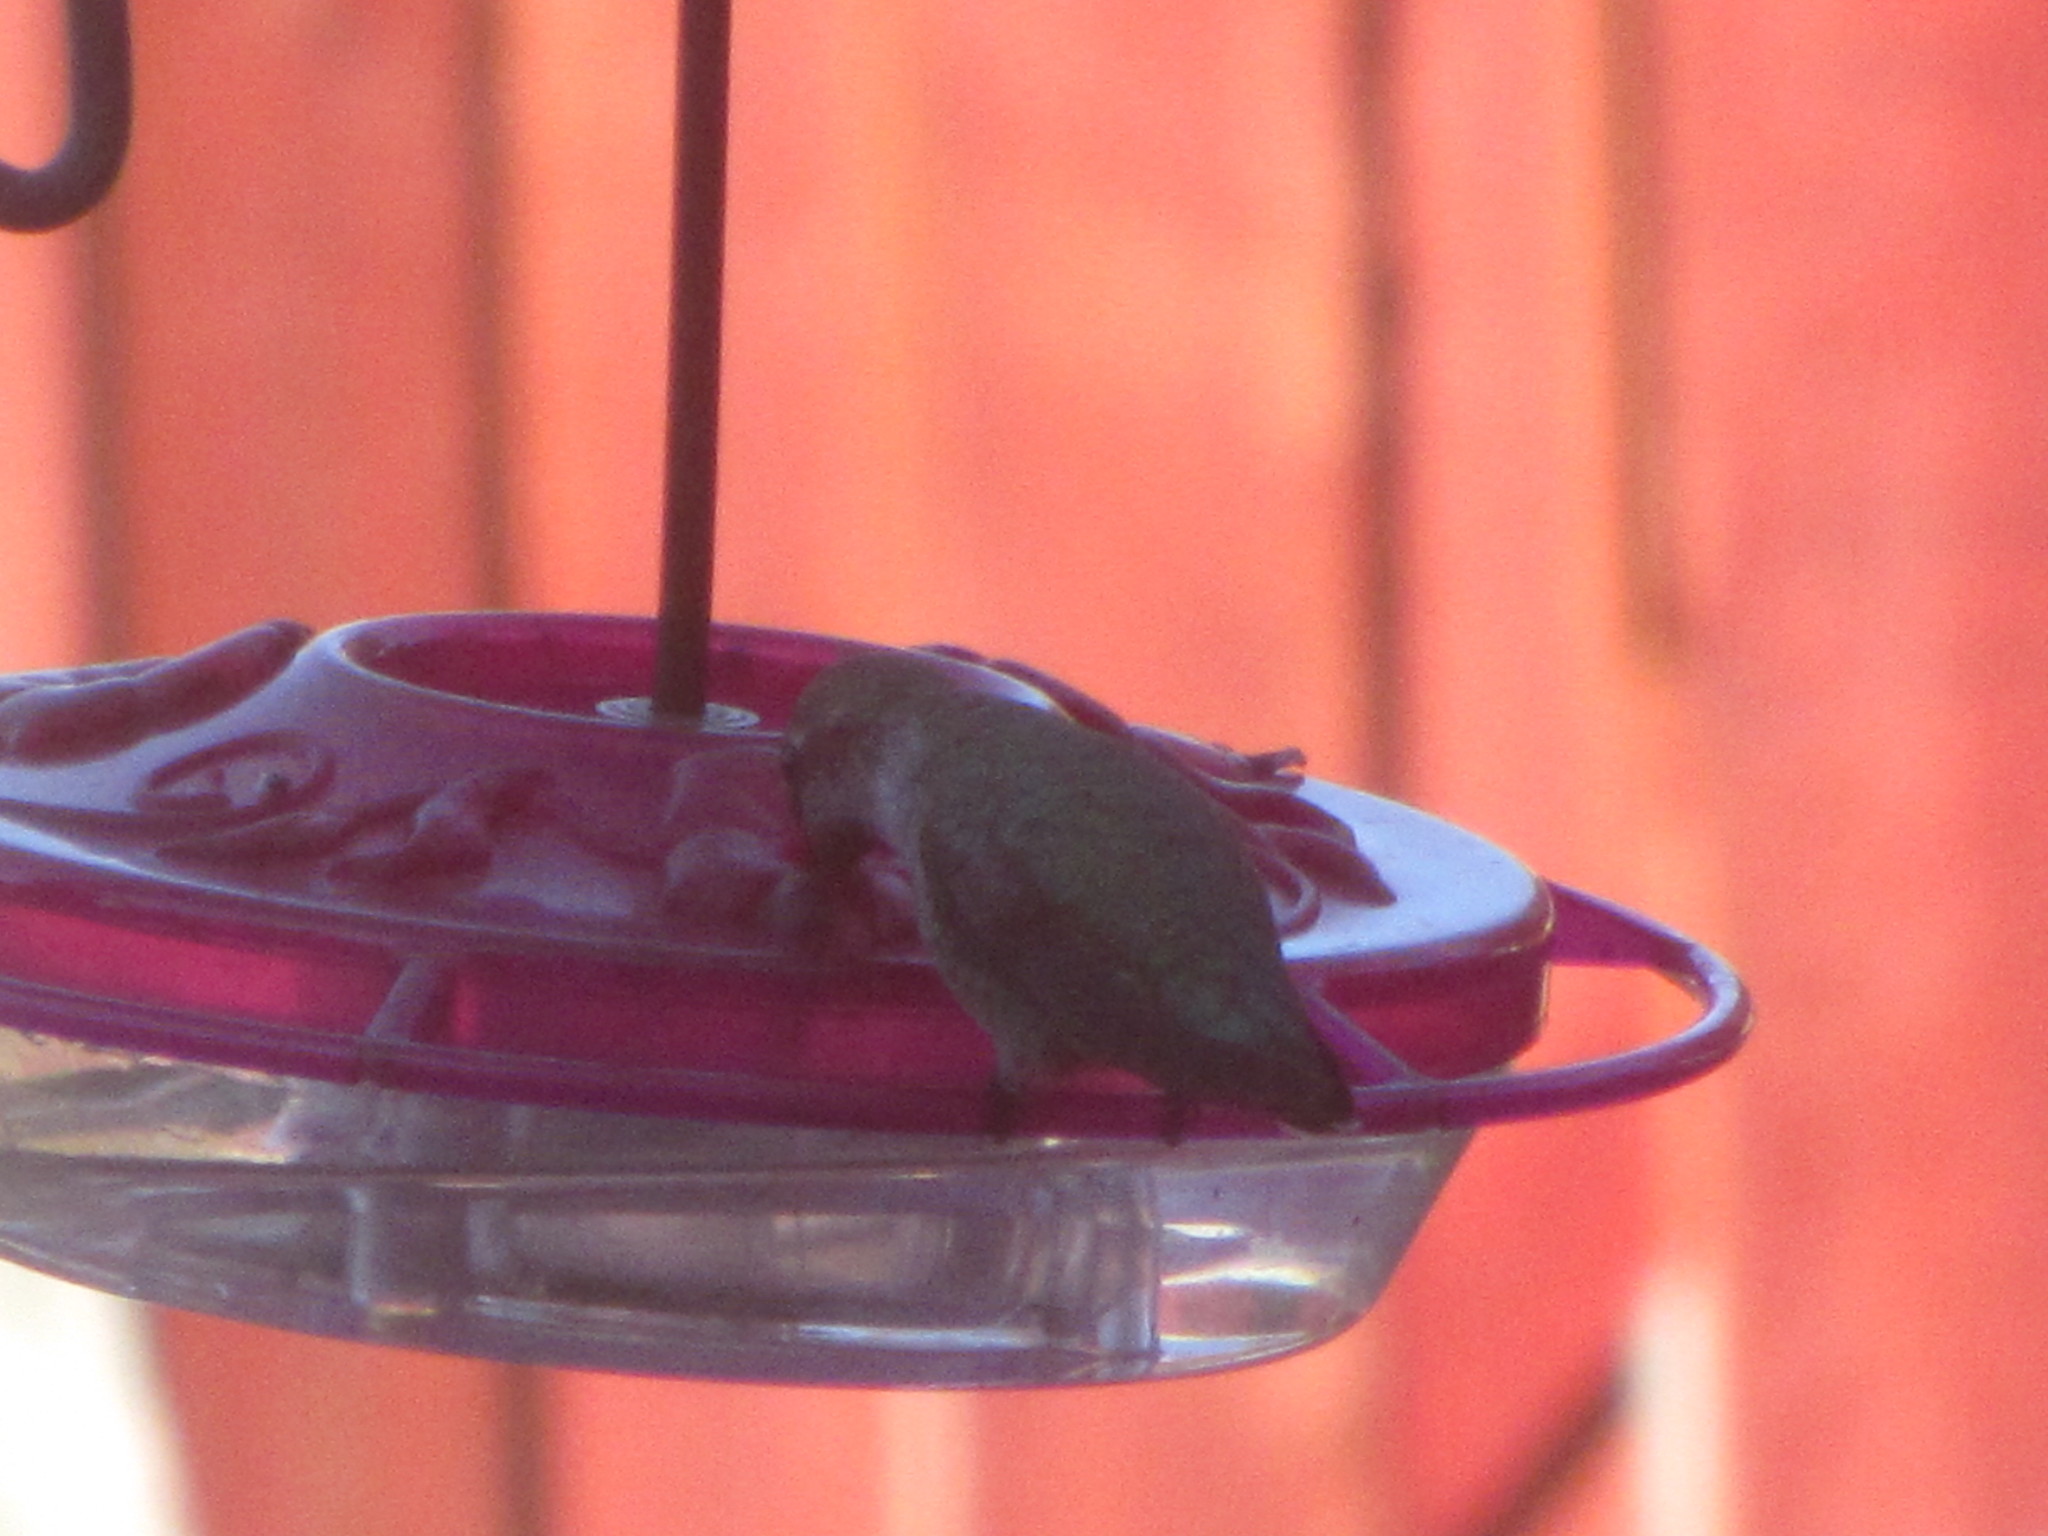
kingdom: Animalia
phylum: Chordata
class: Aves
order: Apodiformes
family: Trochilidae
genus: Calypte
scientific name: Calypte anna
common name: Anna's hummingbird
